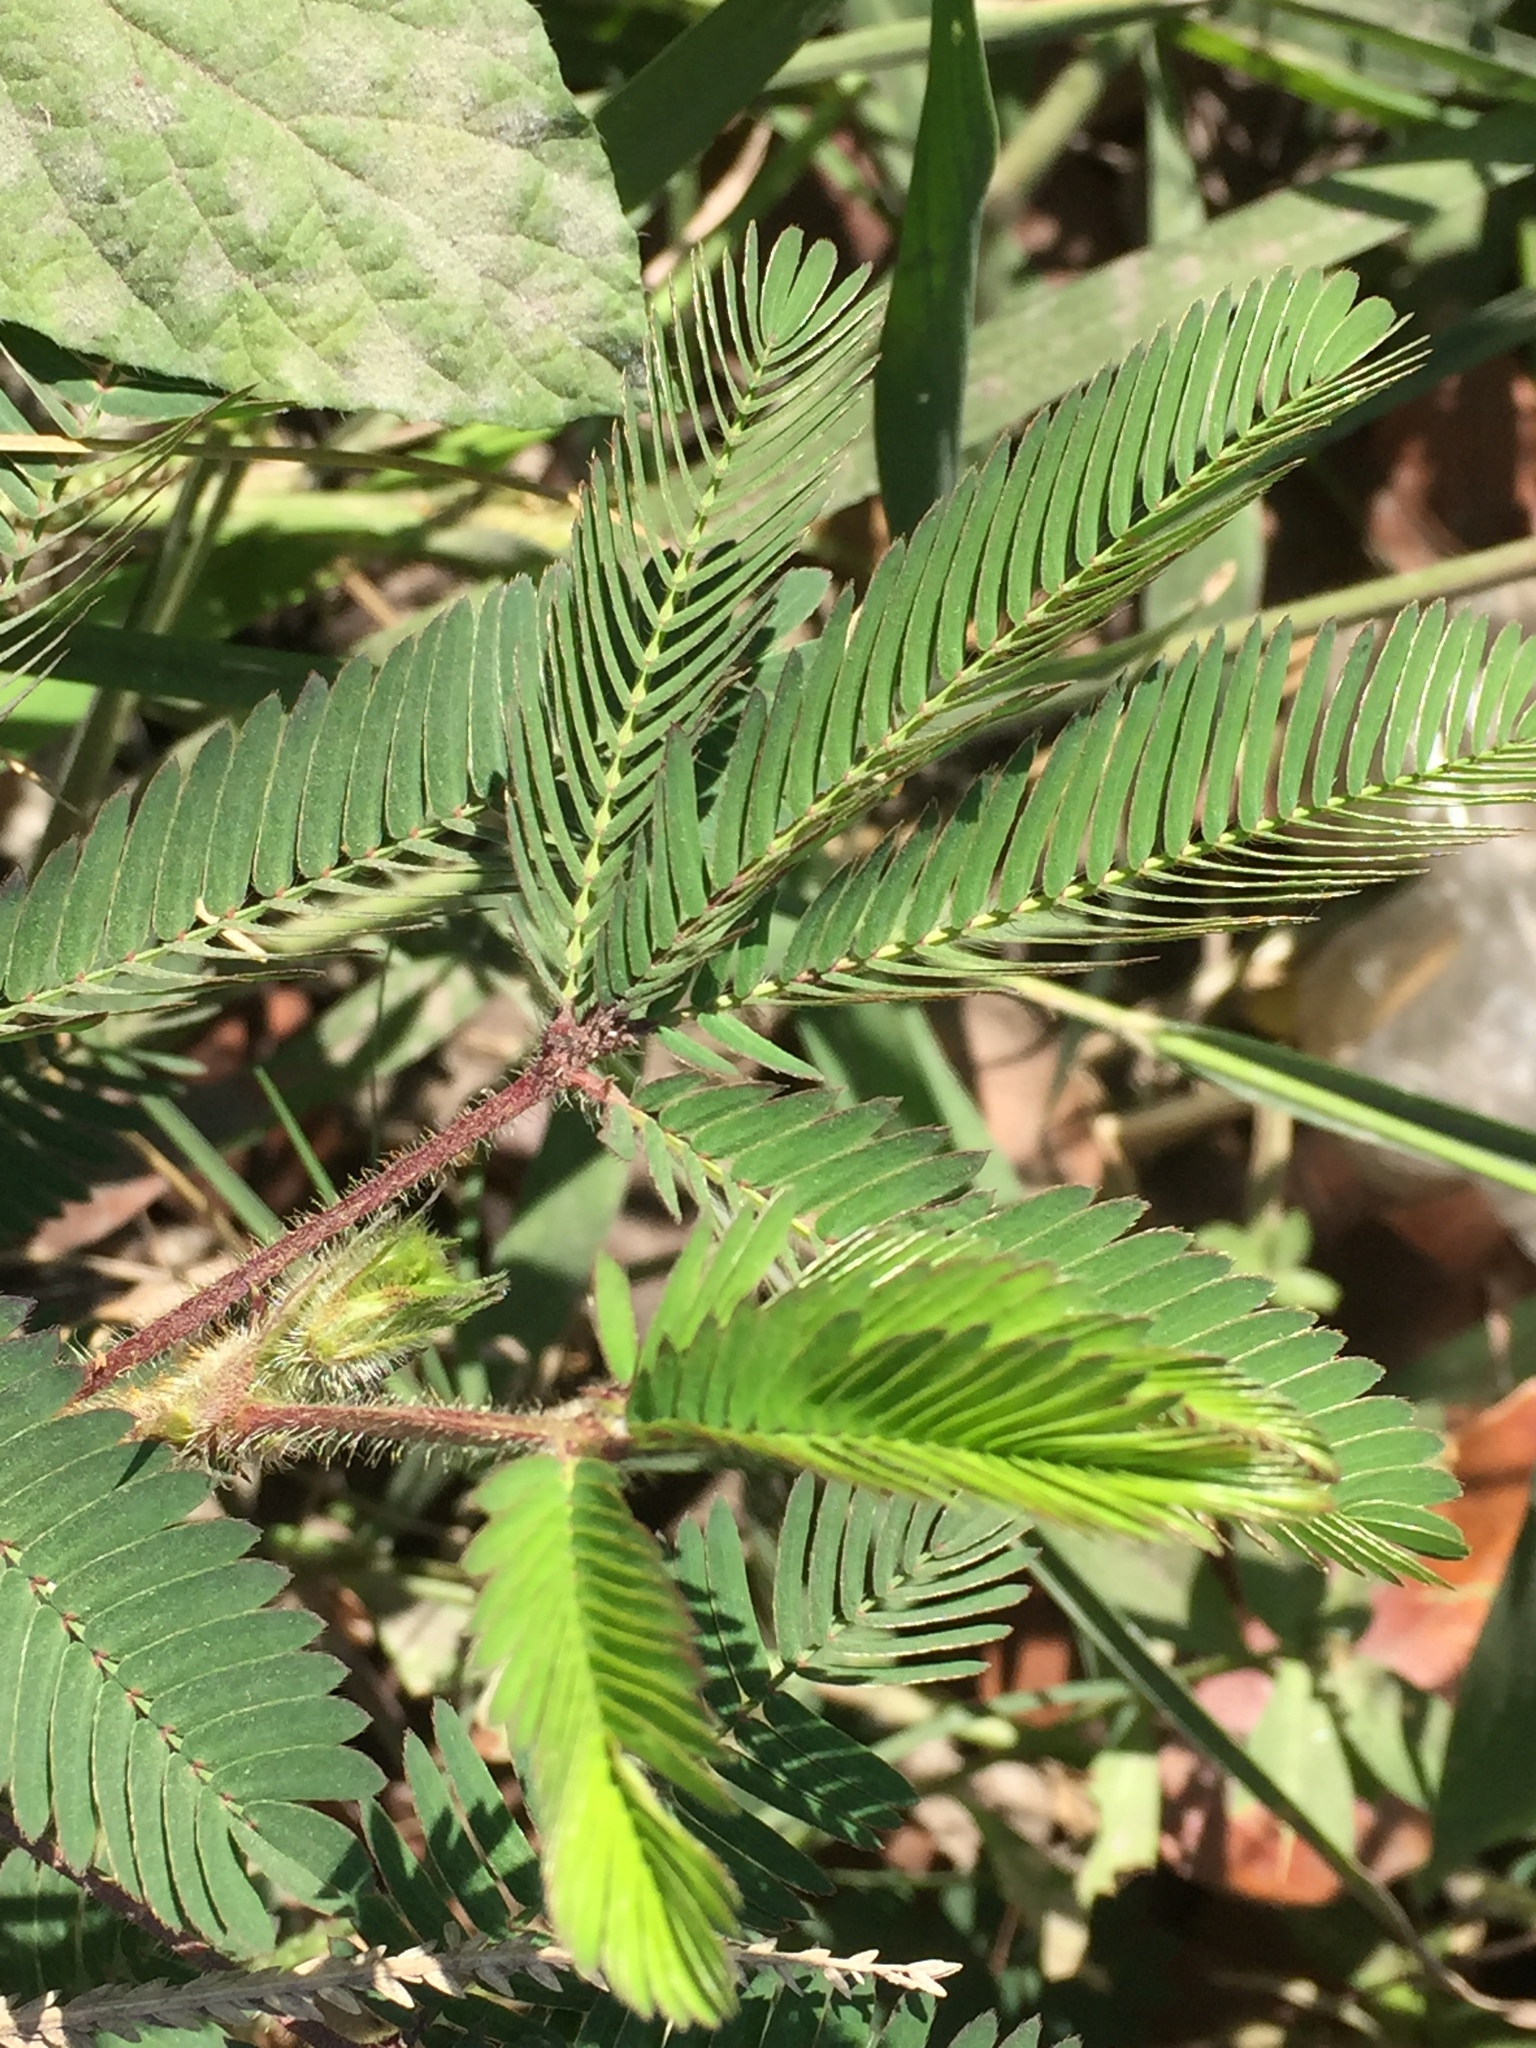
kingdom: Plantae
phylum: Tracheophyta
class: Magnoliopsida
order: Fabales
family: Fabaceae
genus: Mimosa
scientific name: Mimosa pudica
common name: Sensitive plant
